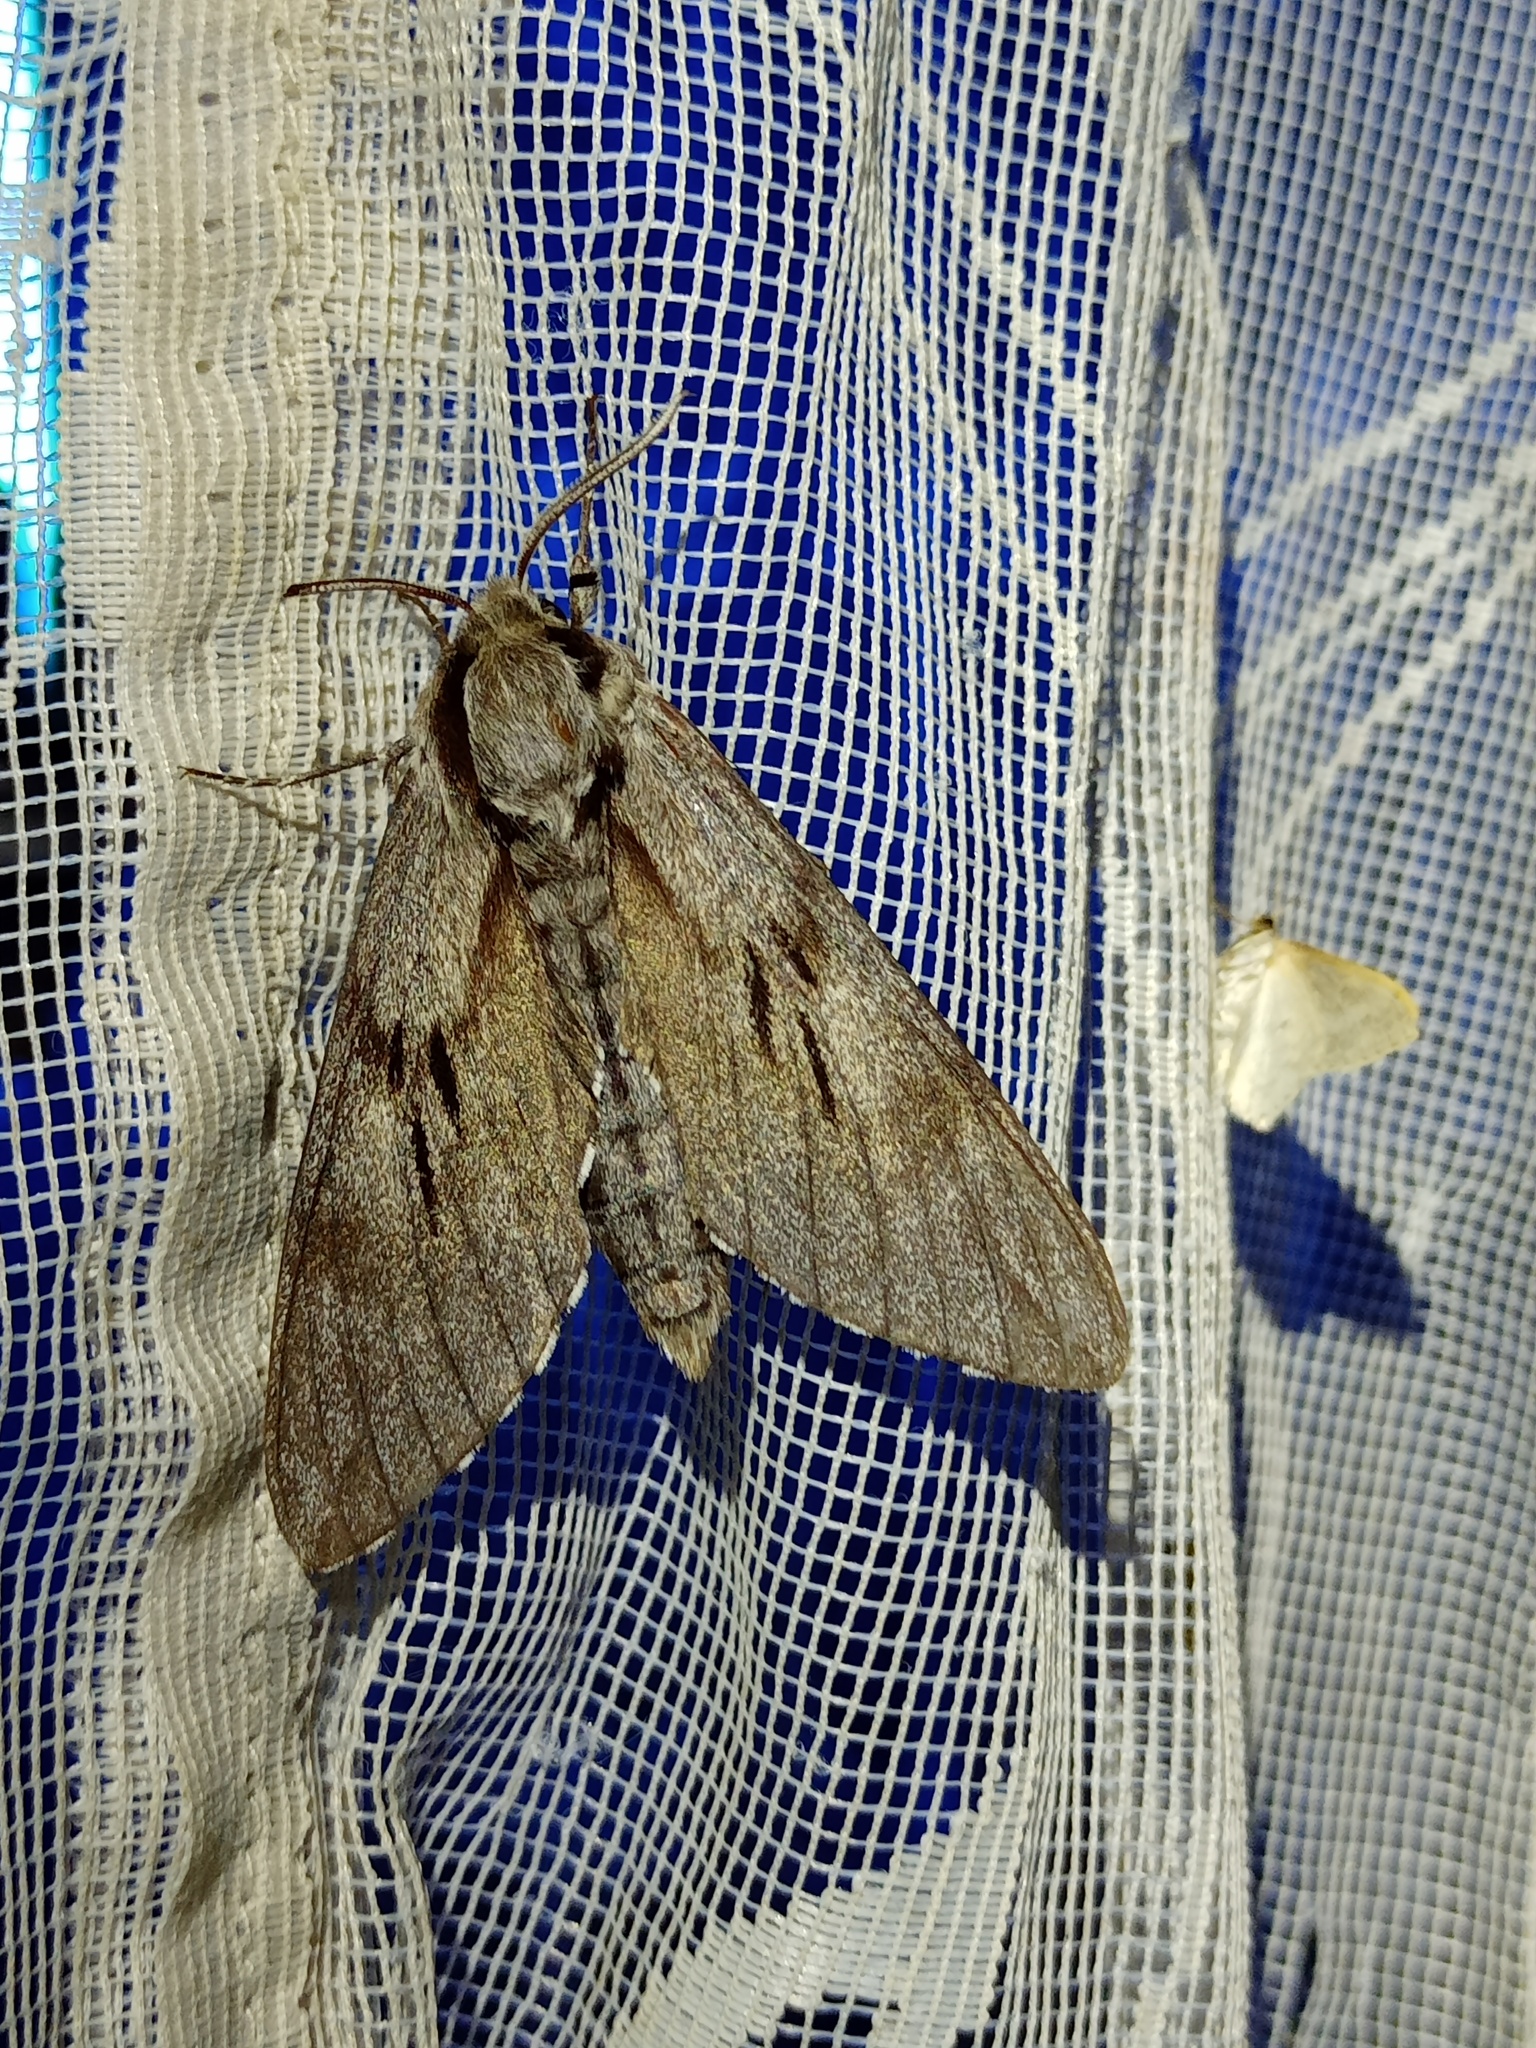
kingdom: Animalia
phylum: Arthropoda
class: Insecta
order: Lepidoptera
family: Sphingidae
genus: Sphinx
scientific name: Sphinx pinastri
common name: Pine hawk-moth
